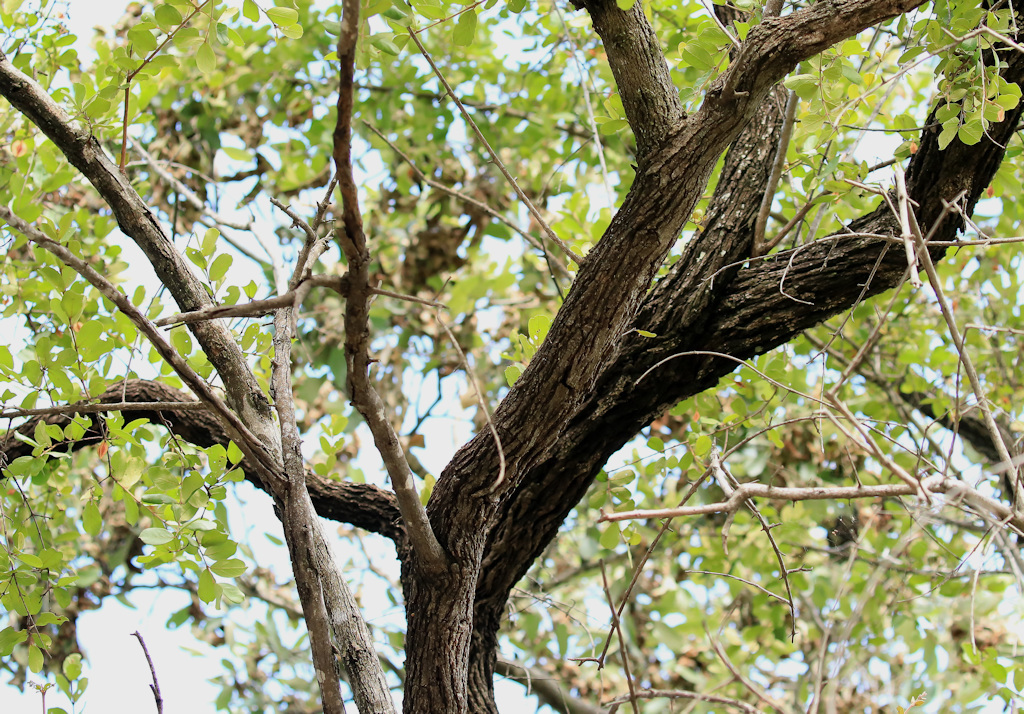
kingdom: Plantae
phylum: Tracheophyta
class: Magnoliopsida
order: Myrtales
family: Combretaceae
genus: Combretum
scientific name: Combretum hereroense
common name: Russet bushwillow
